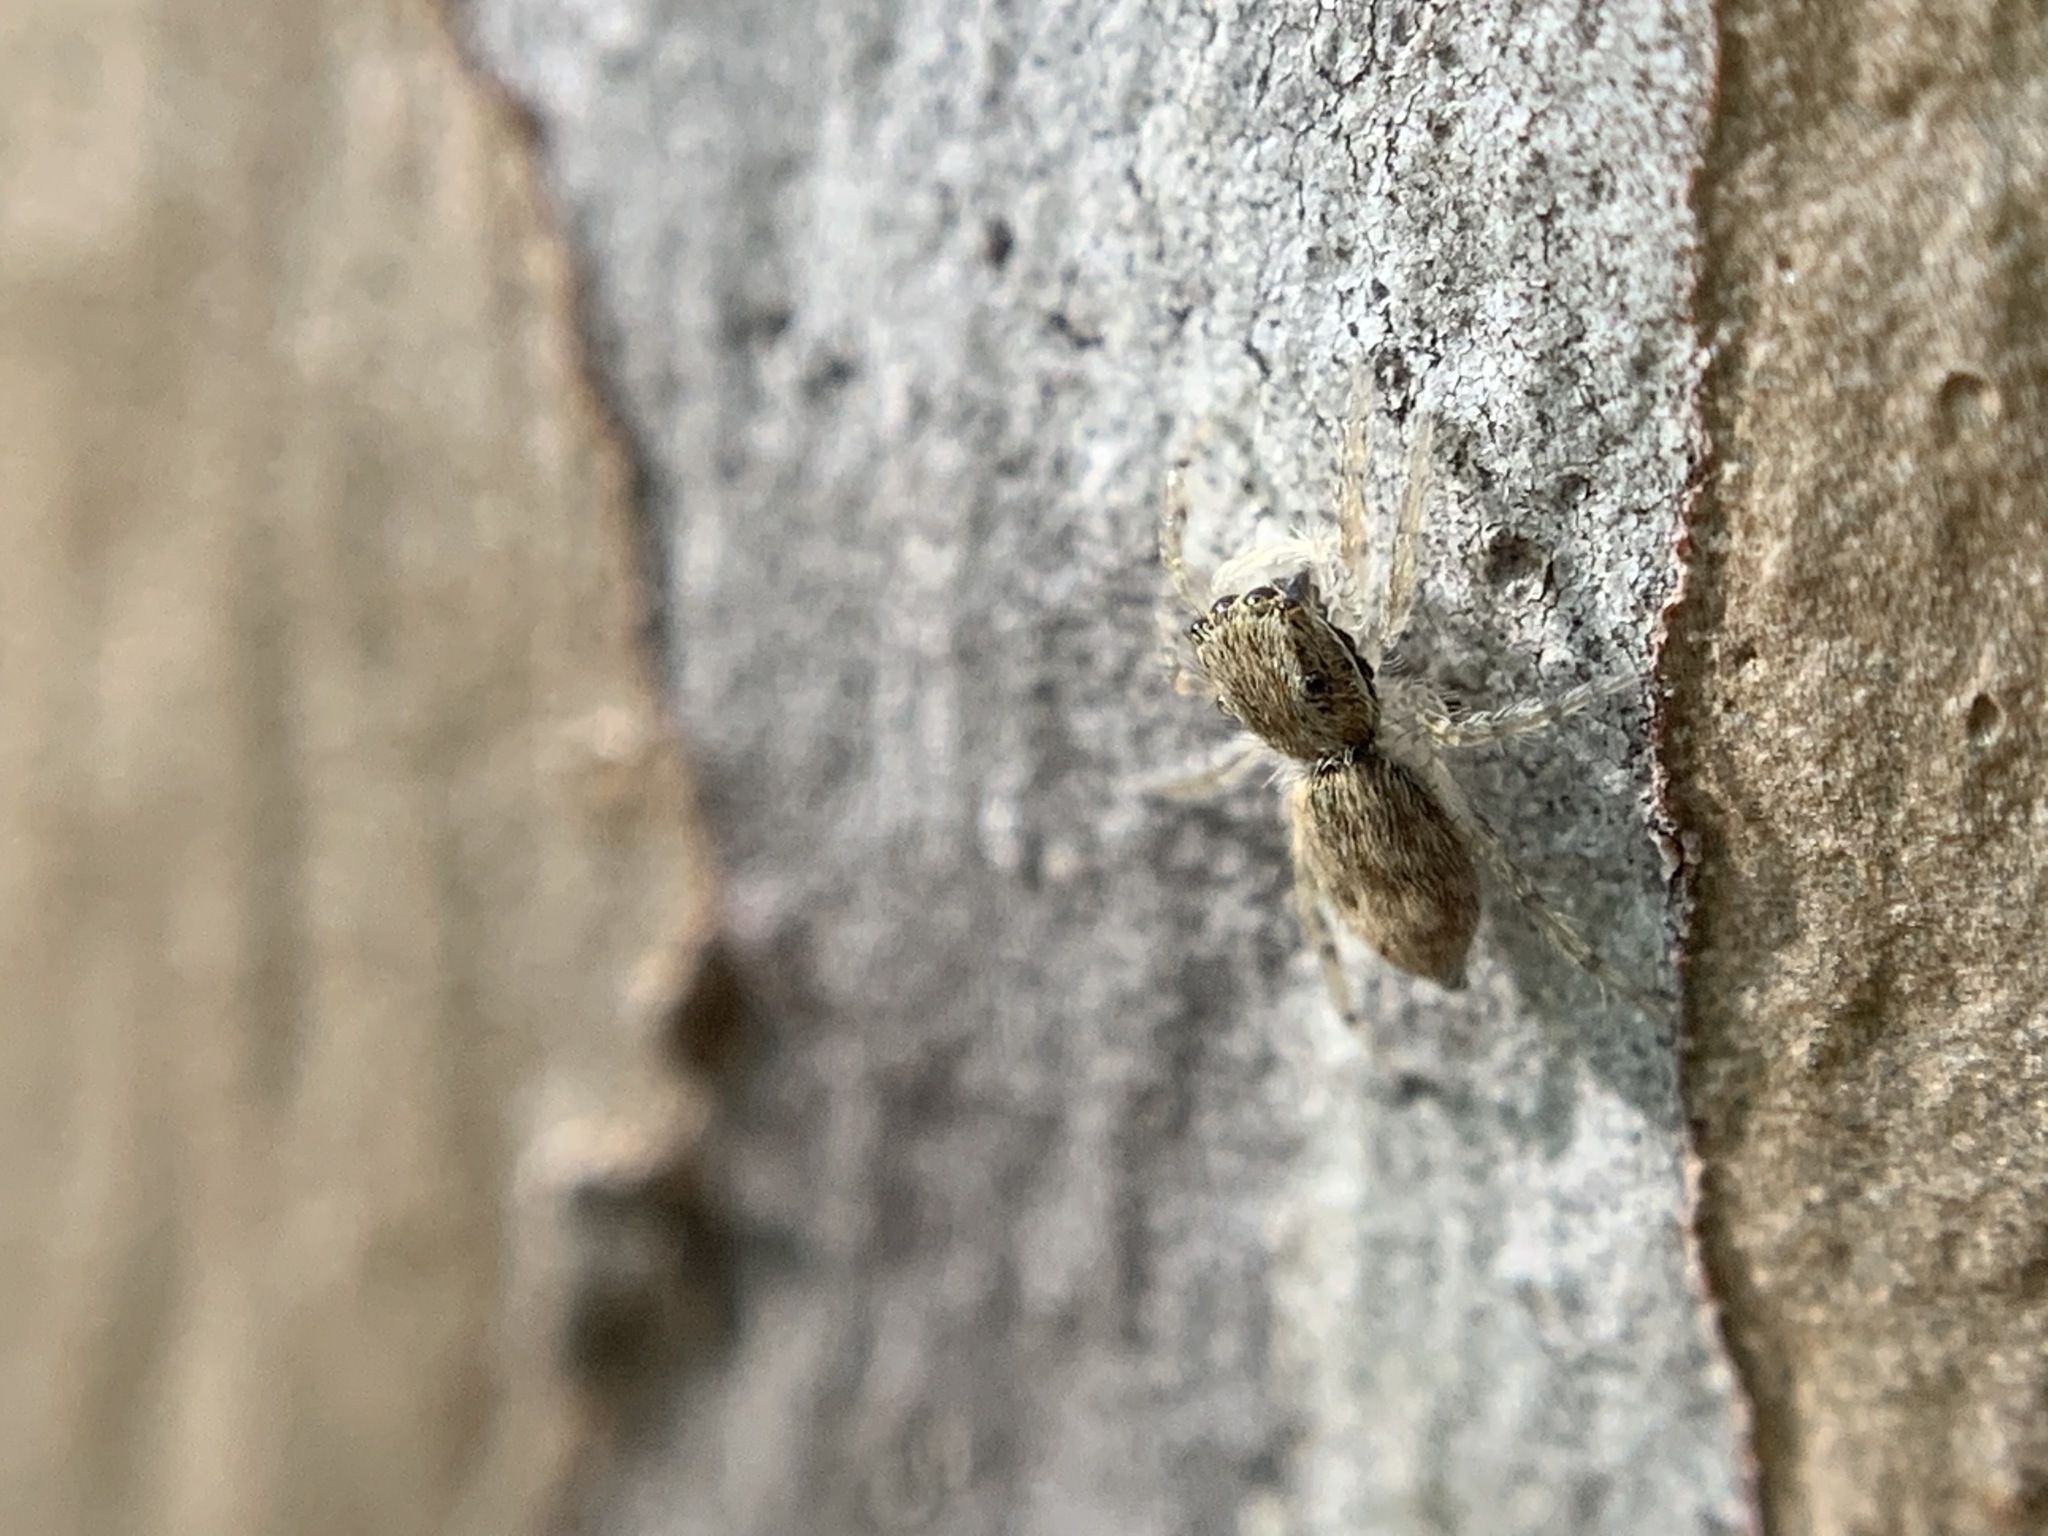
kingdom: Animalia
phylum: Arthropoda
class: Arachnida
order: Araneae
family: Salticidae
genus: Menemerus
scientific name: Menemerus bivittatus
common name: Gray wall jumper
